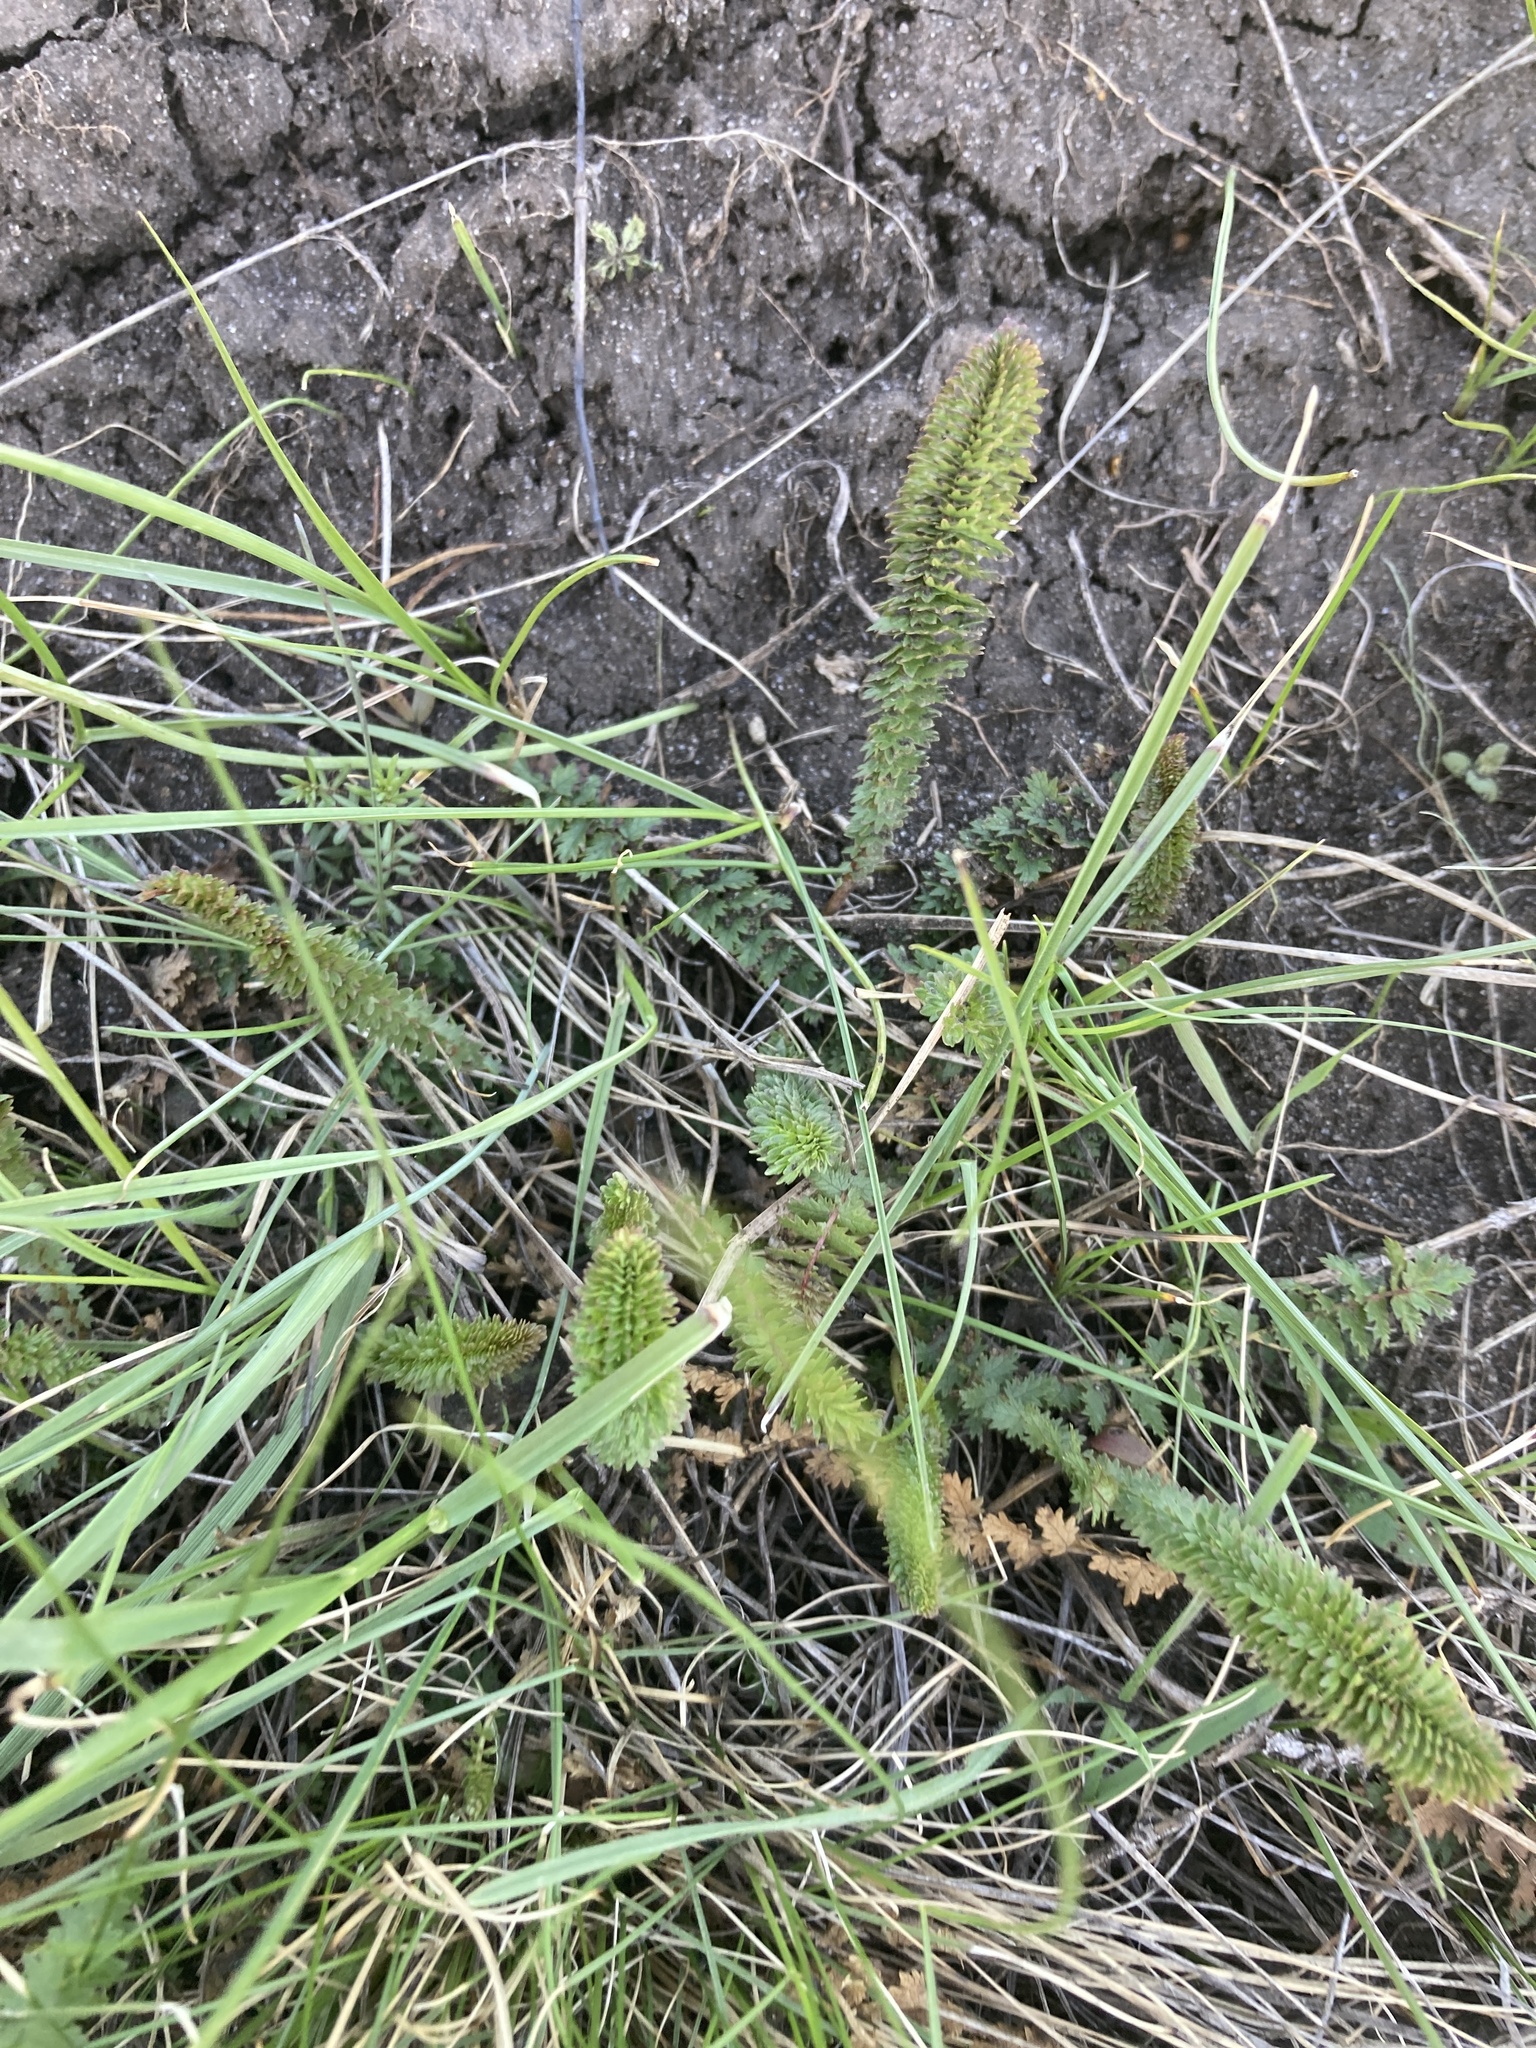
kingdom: Plantae
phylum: Tracheophyta
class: Magnoliopsida
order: Rosales
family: Rosaceae
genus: Filipendula
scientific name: Filipendula vulgaris
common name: Dropwort
